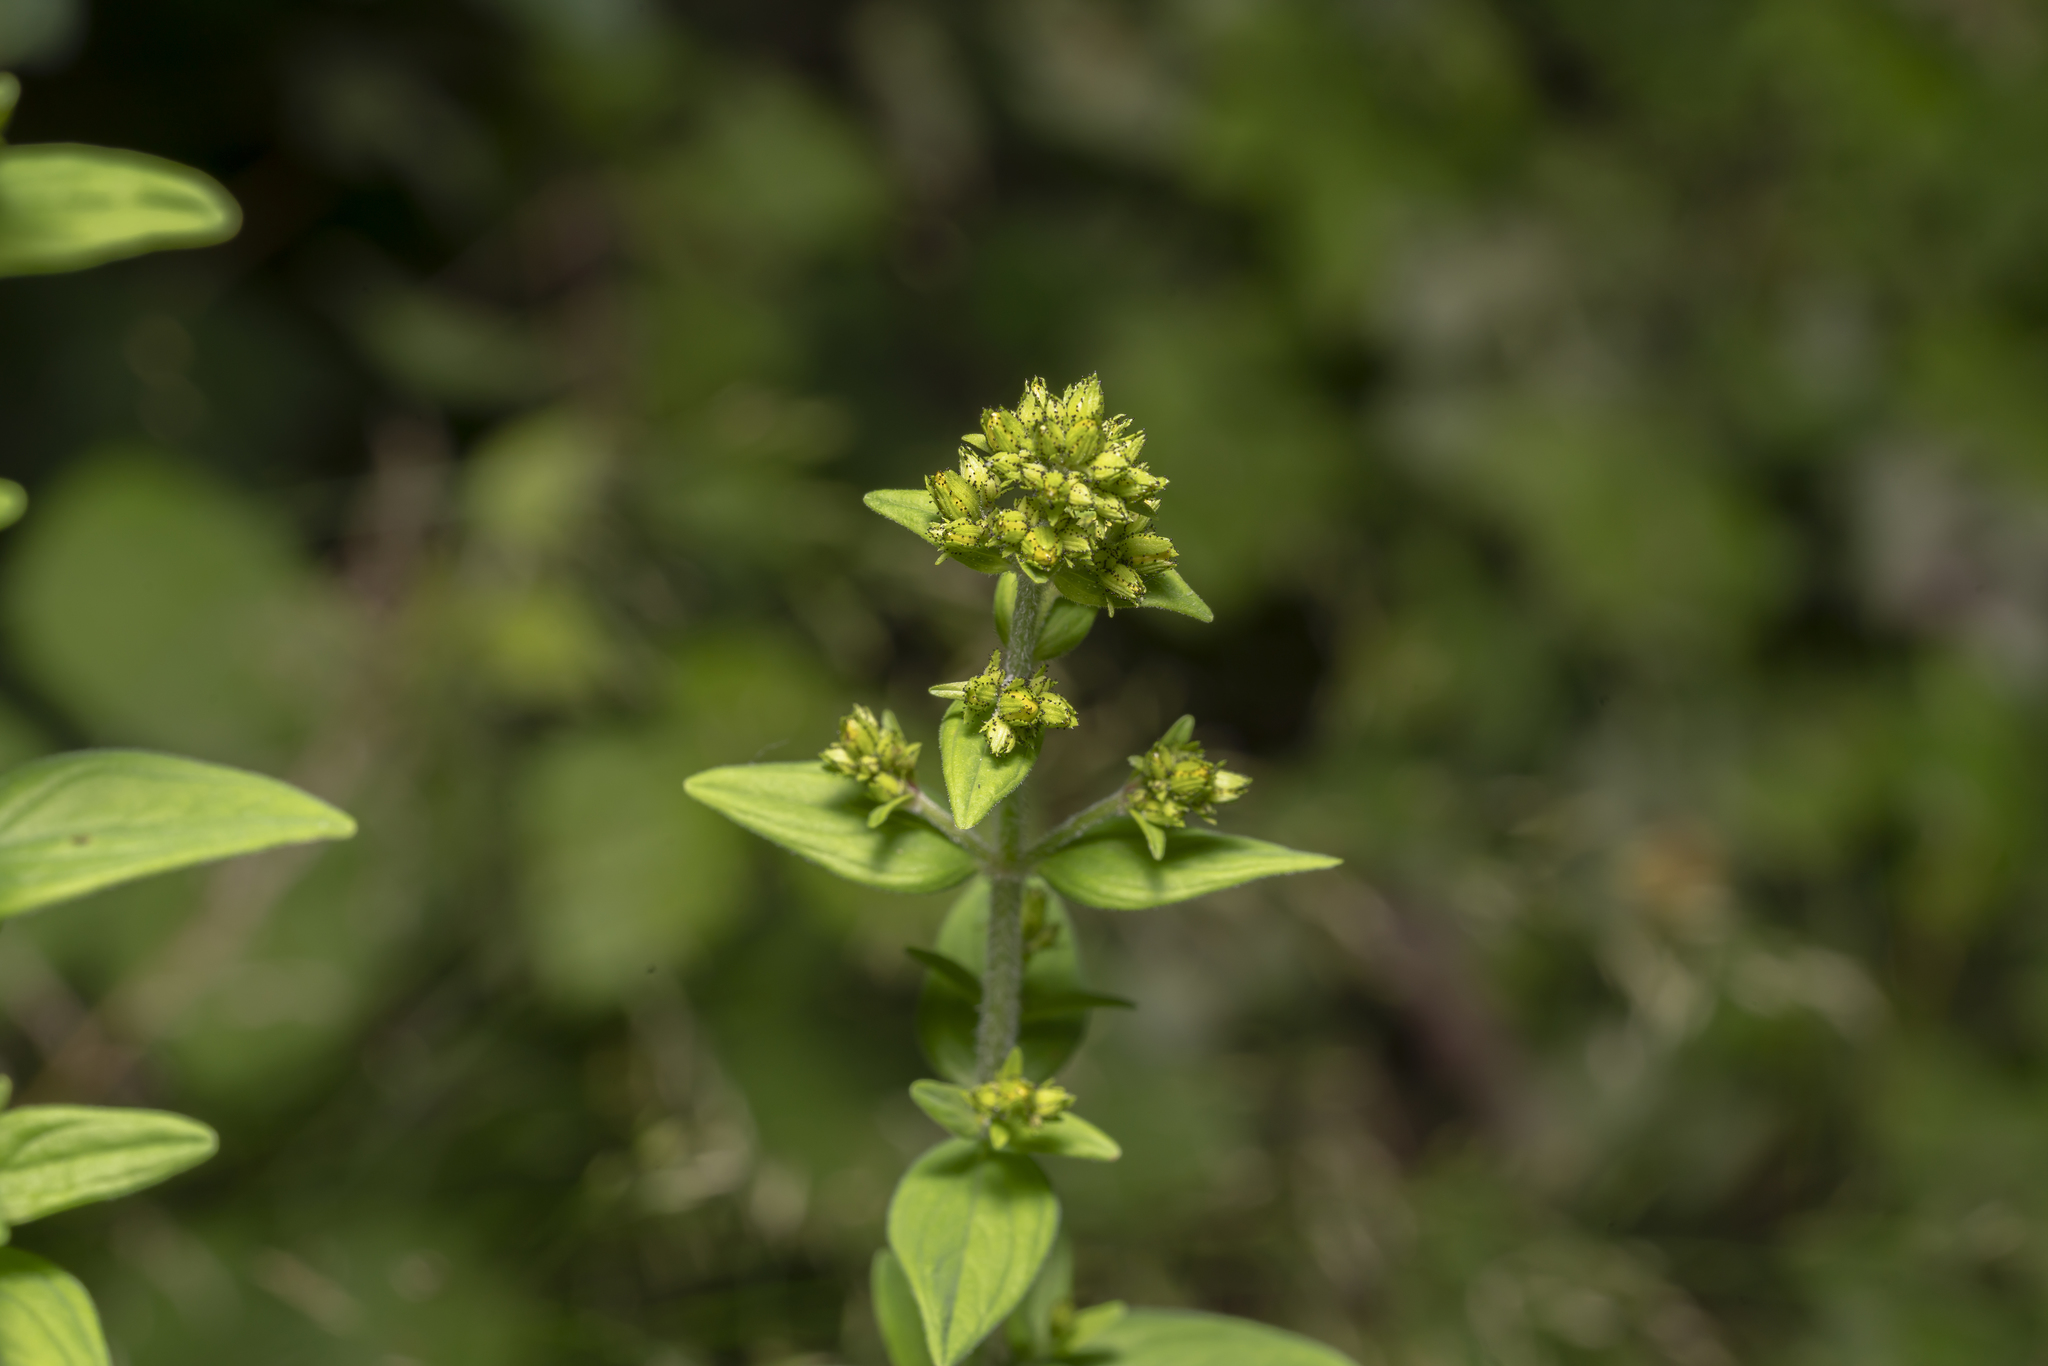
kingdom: Plantae
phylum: Tracheophyta
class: Magnoliopsida
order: Malpighiales
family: Hypericaceae
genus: Hypericum
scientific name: Hypericum hirsutum
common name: Hairy st. john's-wort
